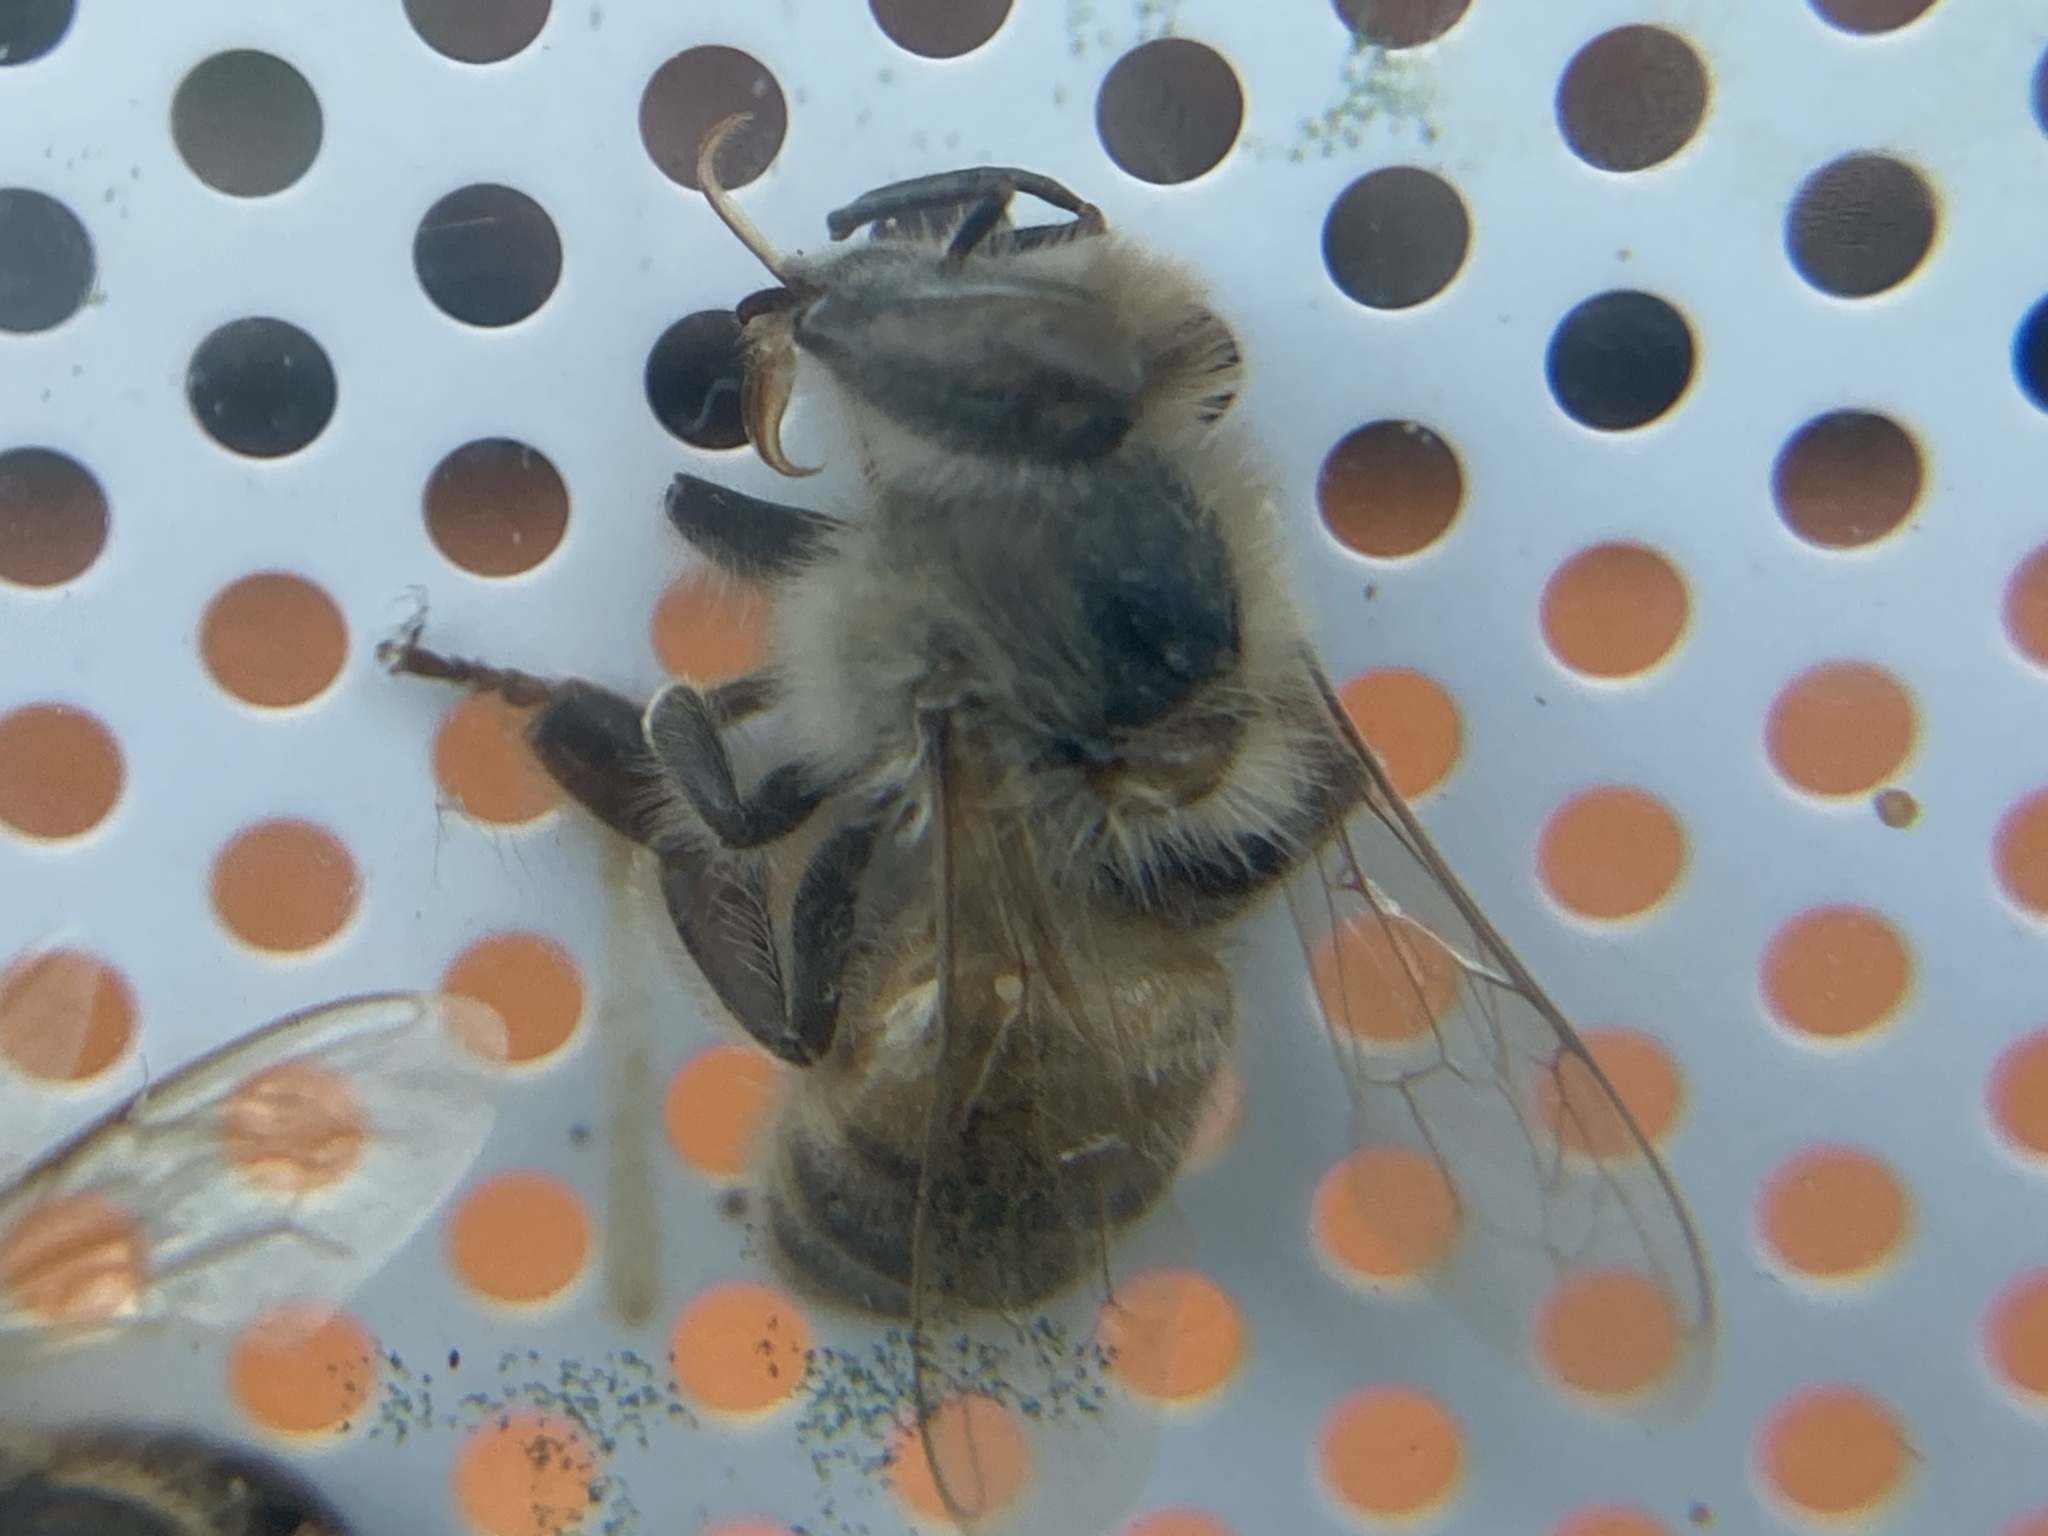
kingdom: Animalia
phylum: Arthropoda
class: Insecta
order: Hymenoptera
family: Apidae
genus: Apis
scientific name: Apis mellifera
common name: Honey bee
